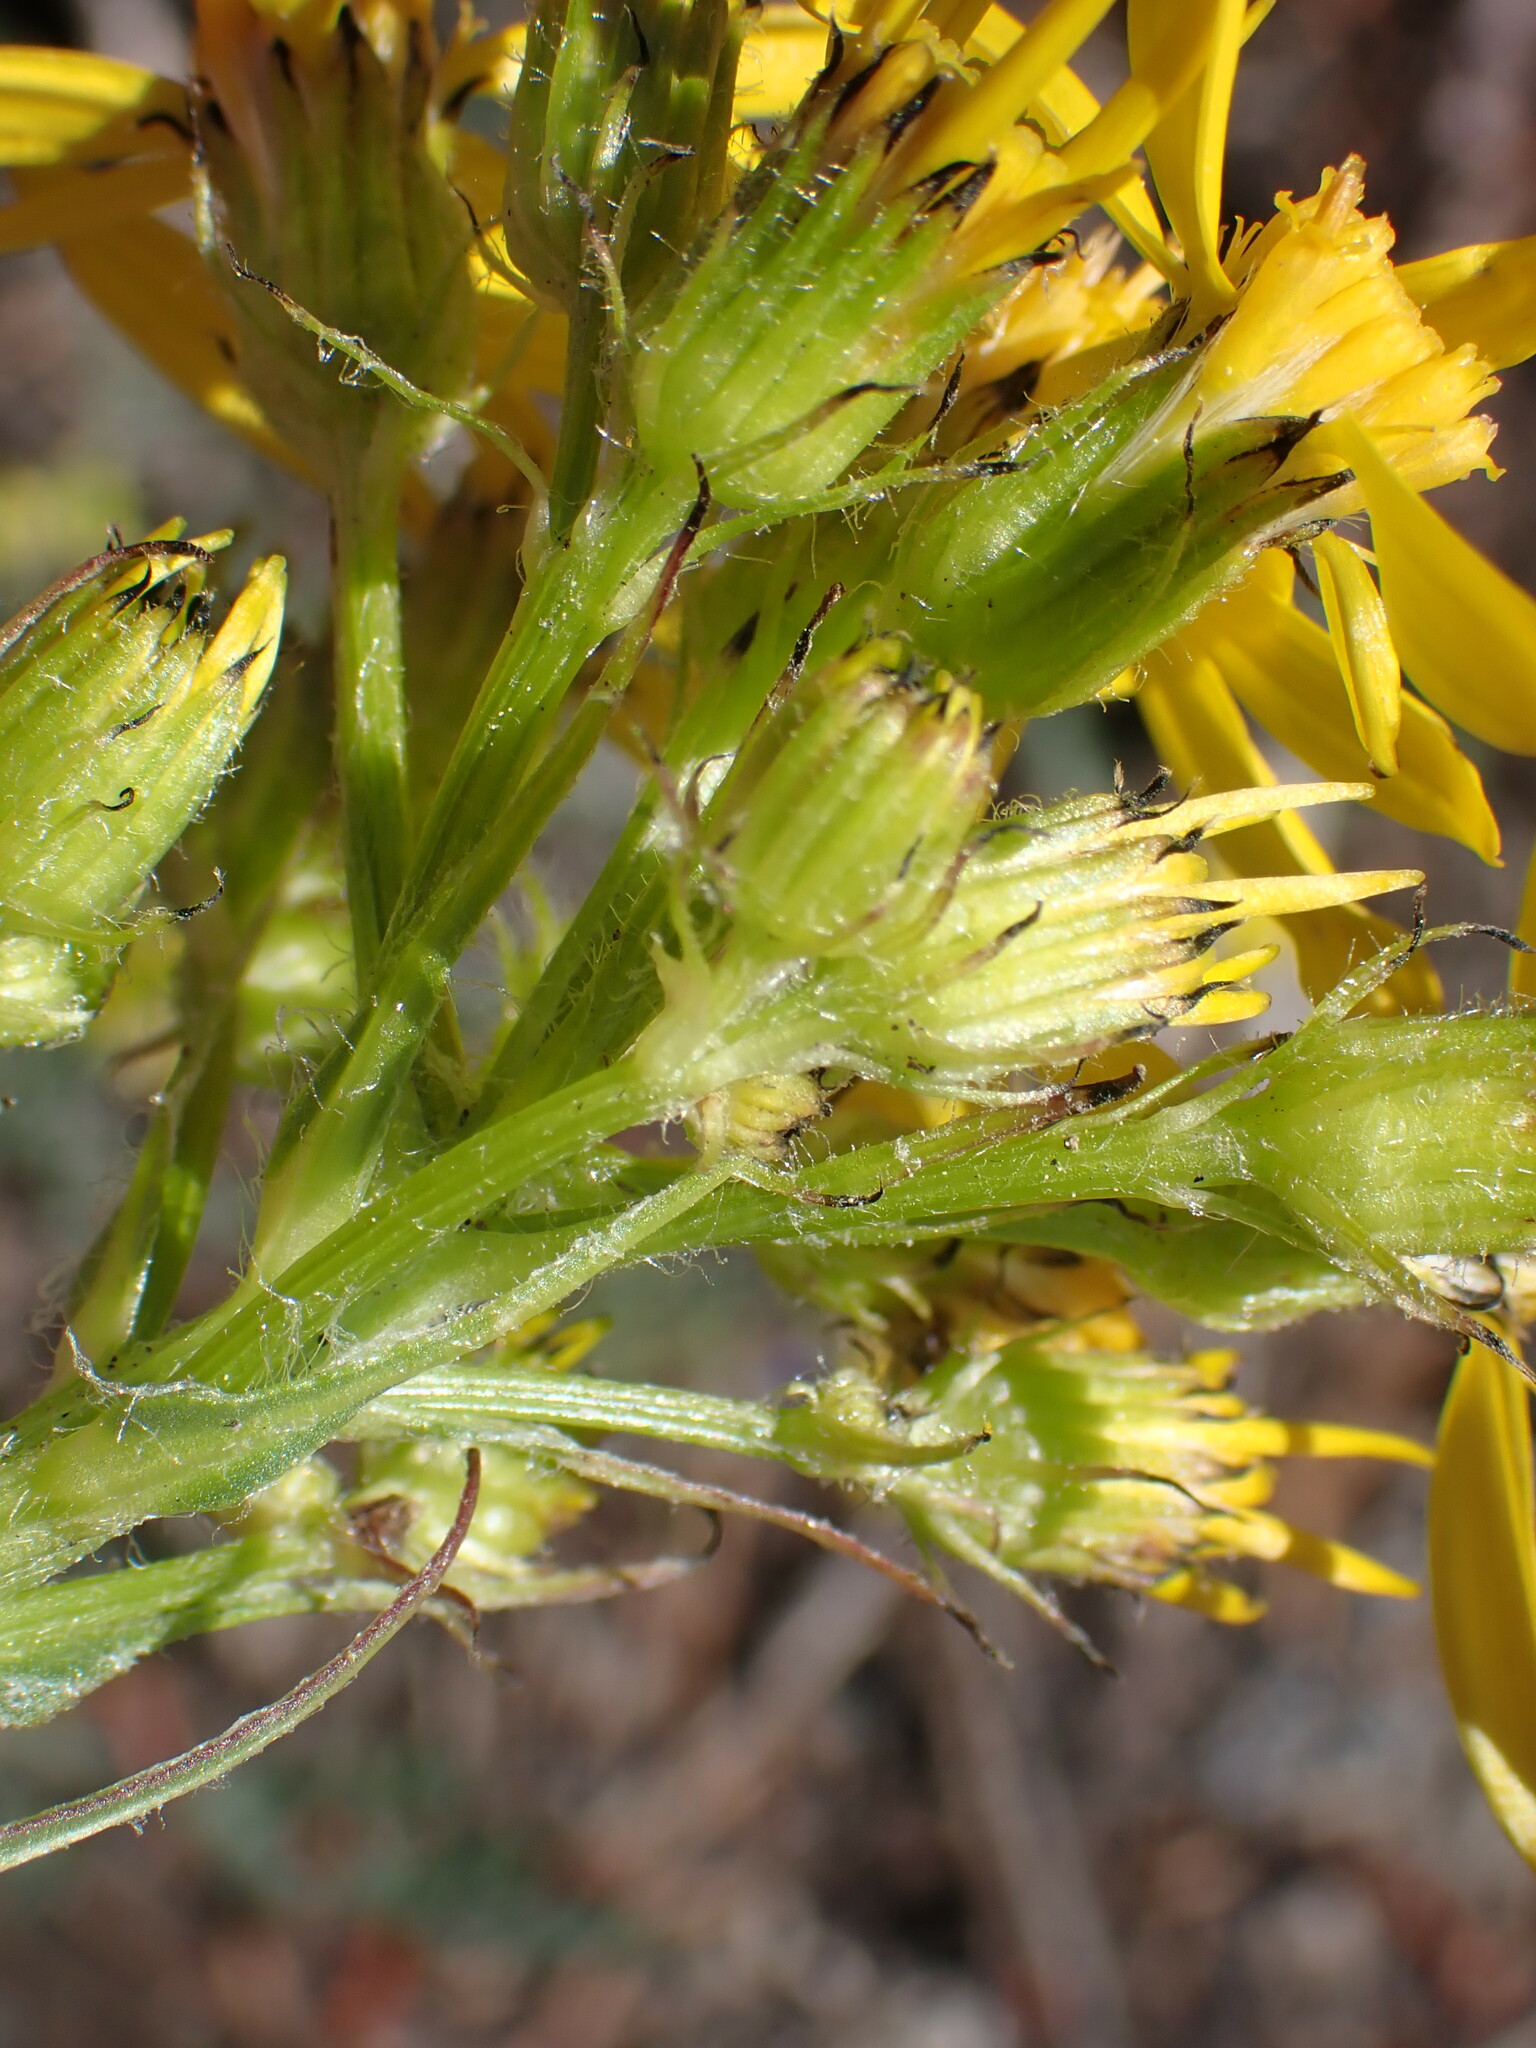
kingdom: Plantae
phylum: Tracheophyta
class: Magnoliopsida
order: Asterales
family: Asteraceae
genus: Senecio
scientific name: Senecio integerrimus
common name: Gaugeplant
